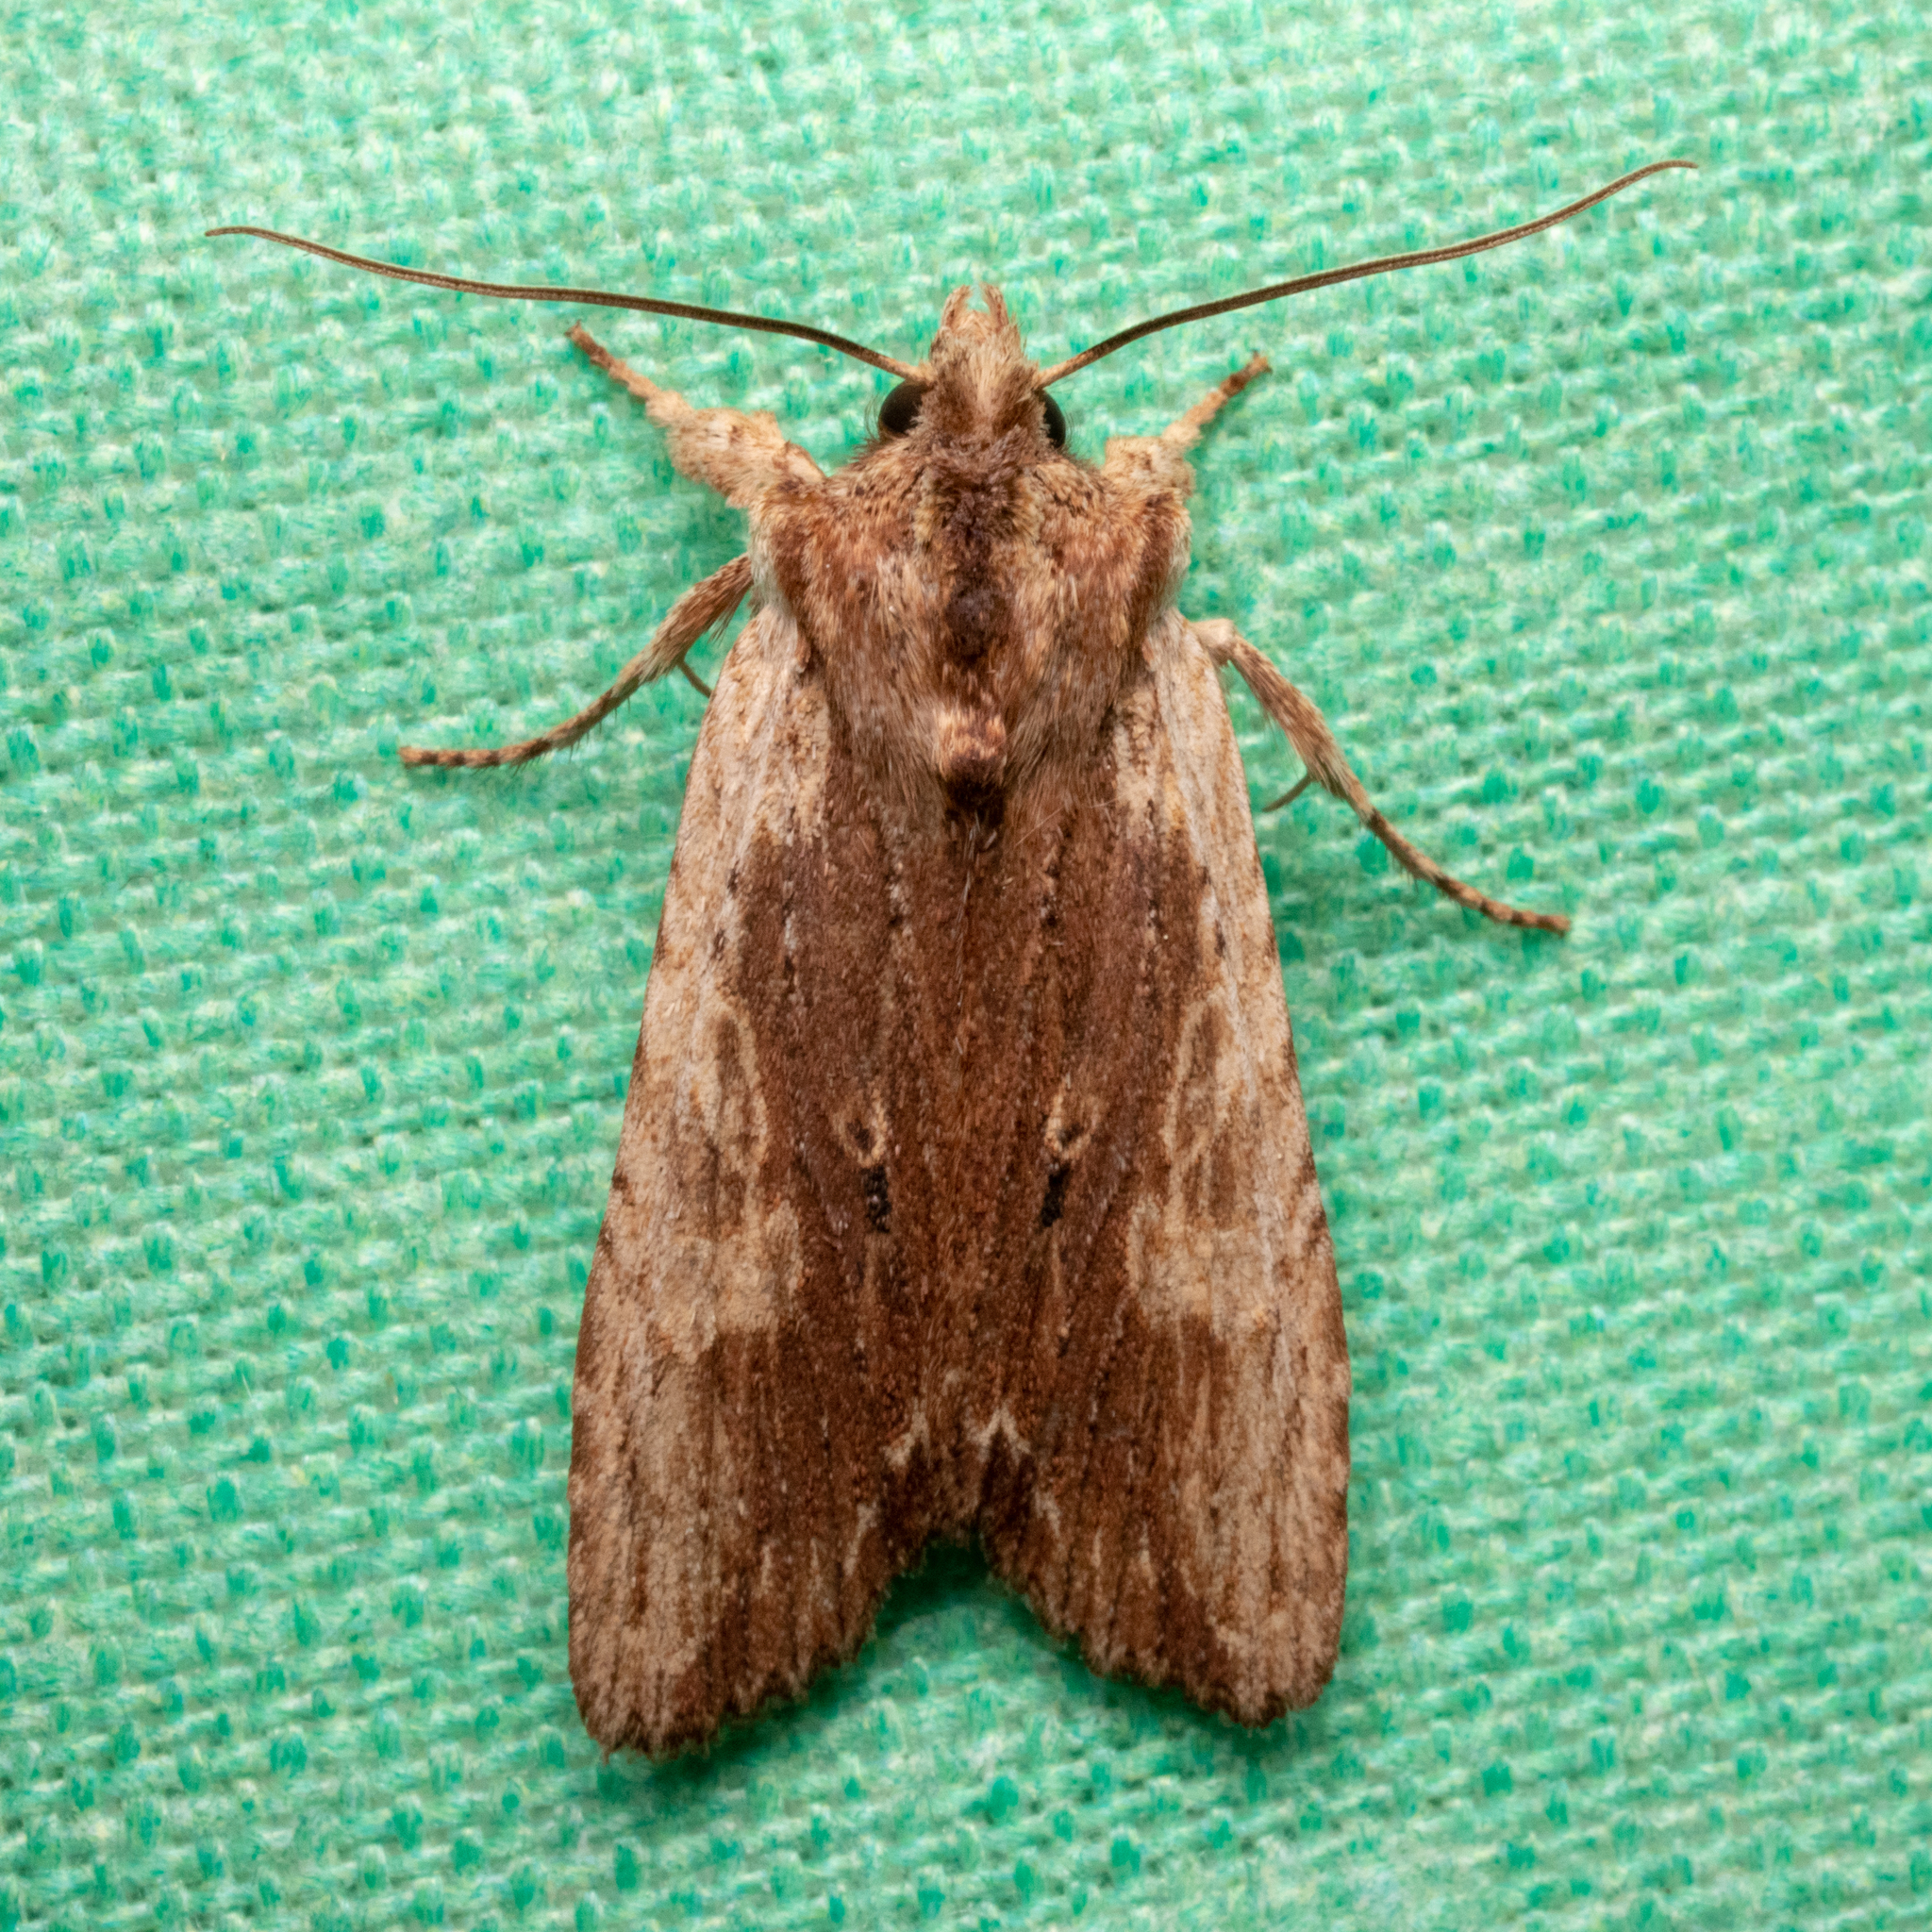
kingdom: Animalia
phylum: Arthropoda
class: Insecta
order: Lepidoptera
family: Noctuidae
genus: Lithophane
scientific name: Lithophane signosa
